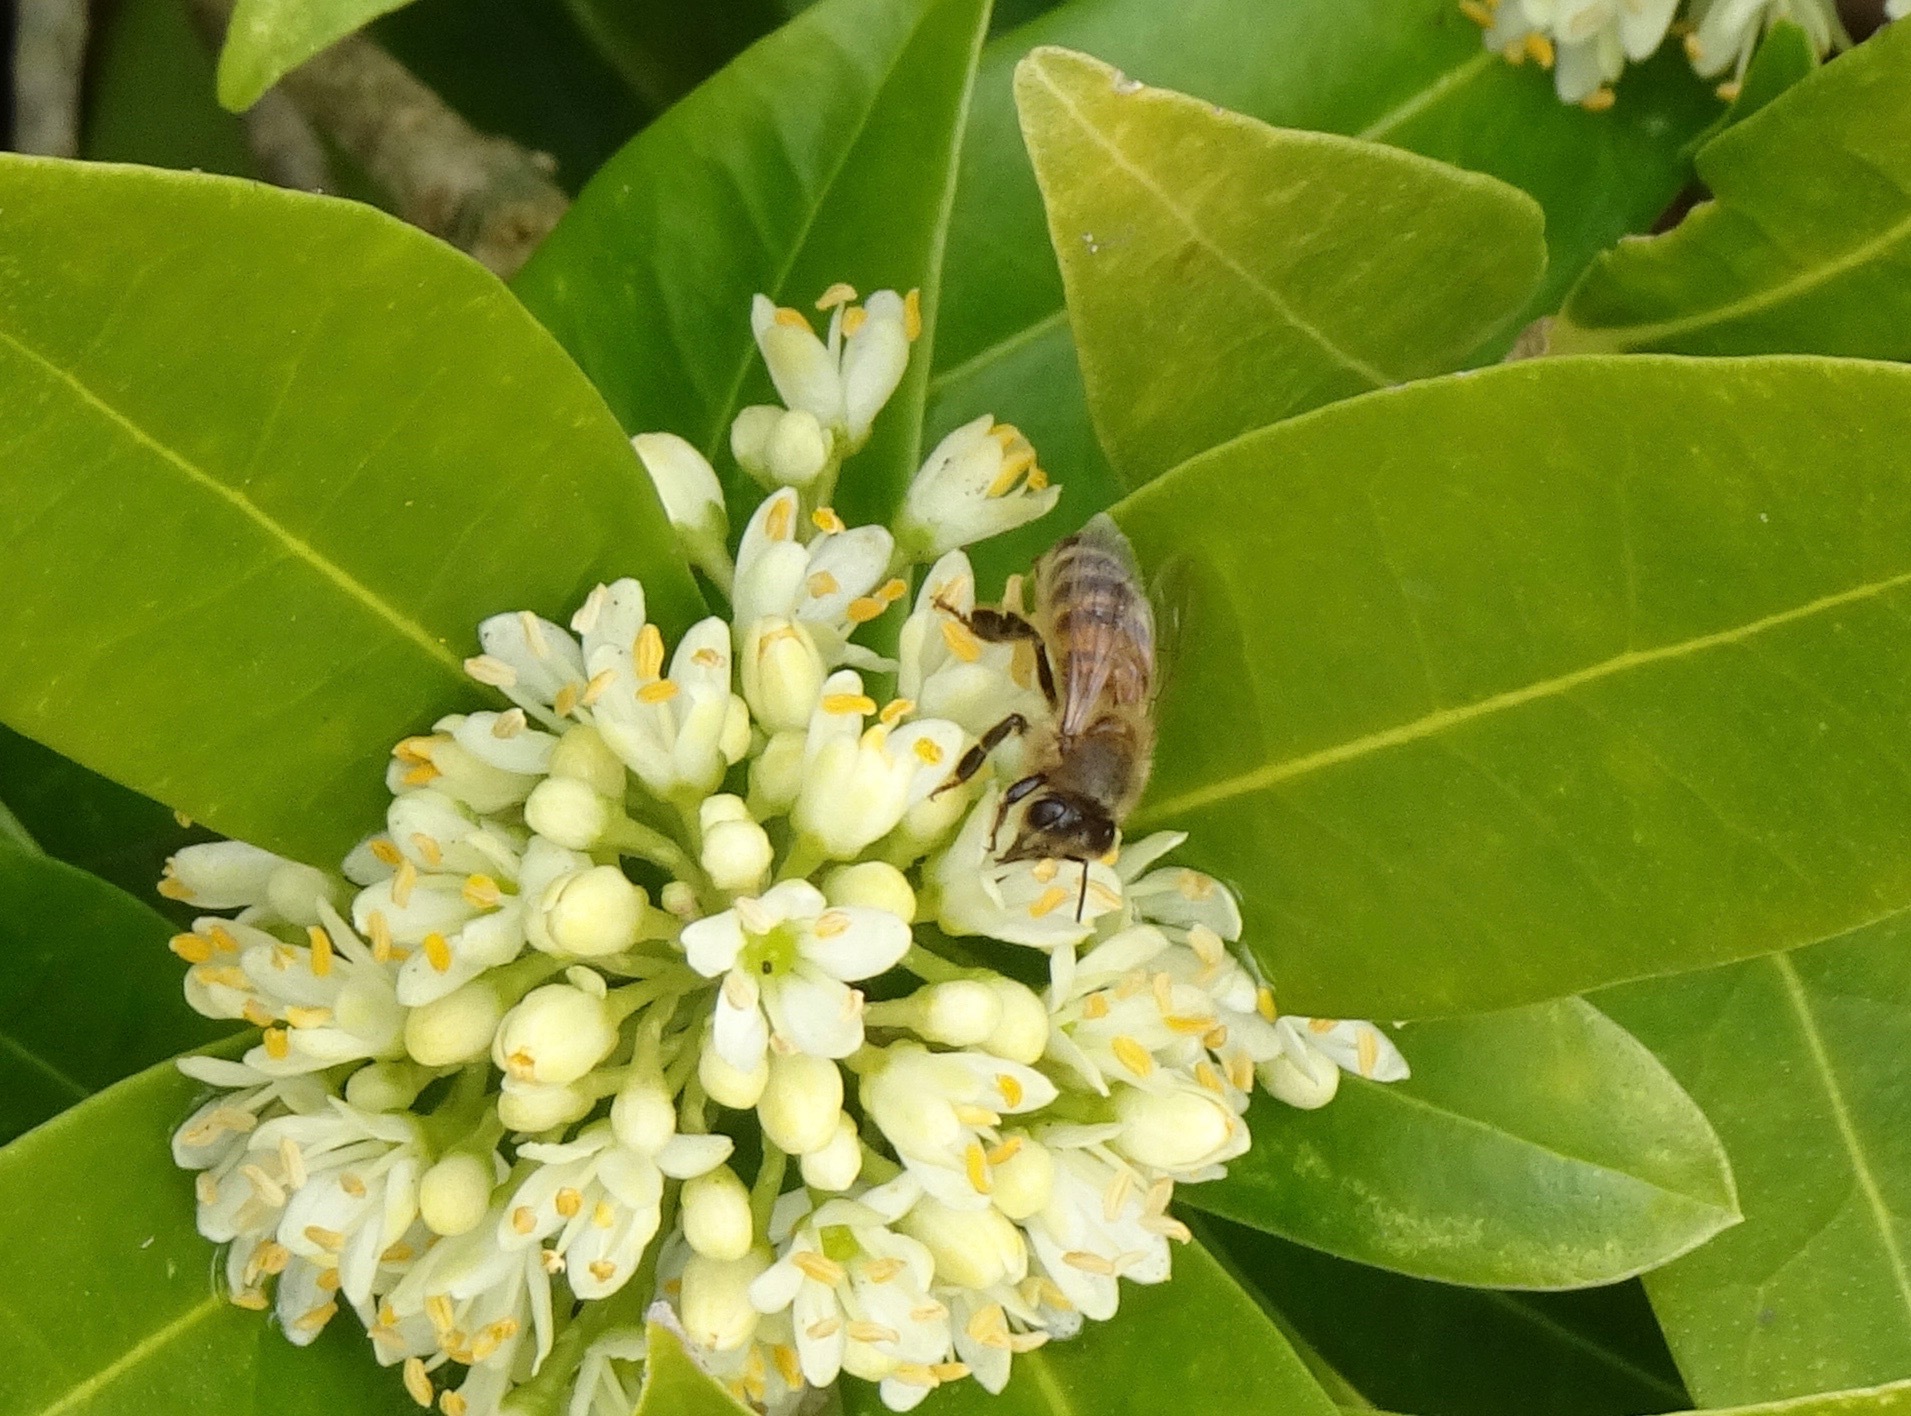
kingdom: Animalia
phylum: Arthropoda
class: Insecta
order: Hymenoptera
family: Apidae
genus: Apis
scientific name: Apis mellifera
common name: Honey bee
